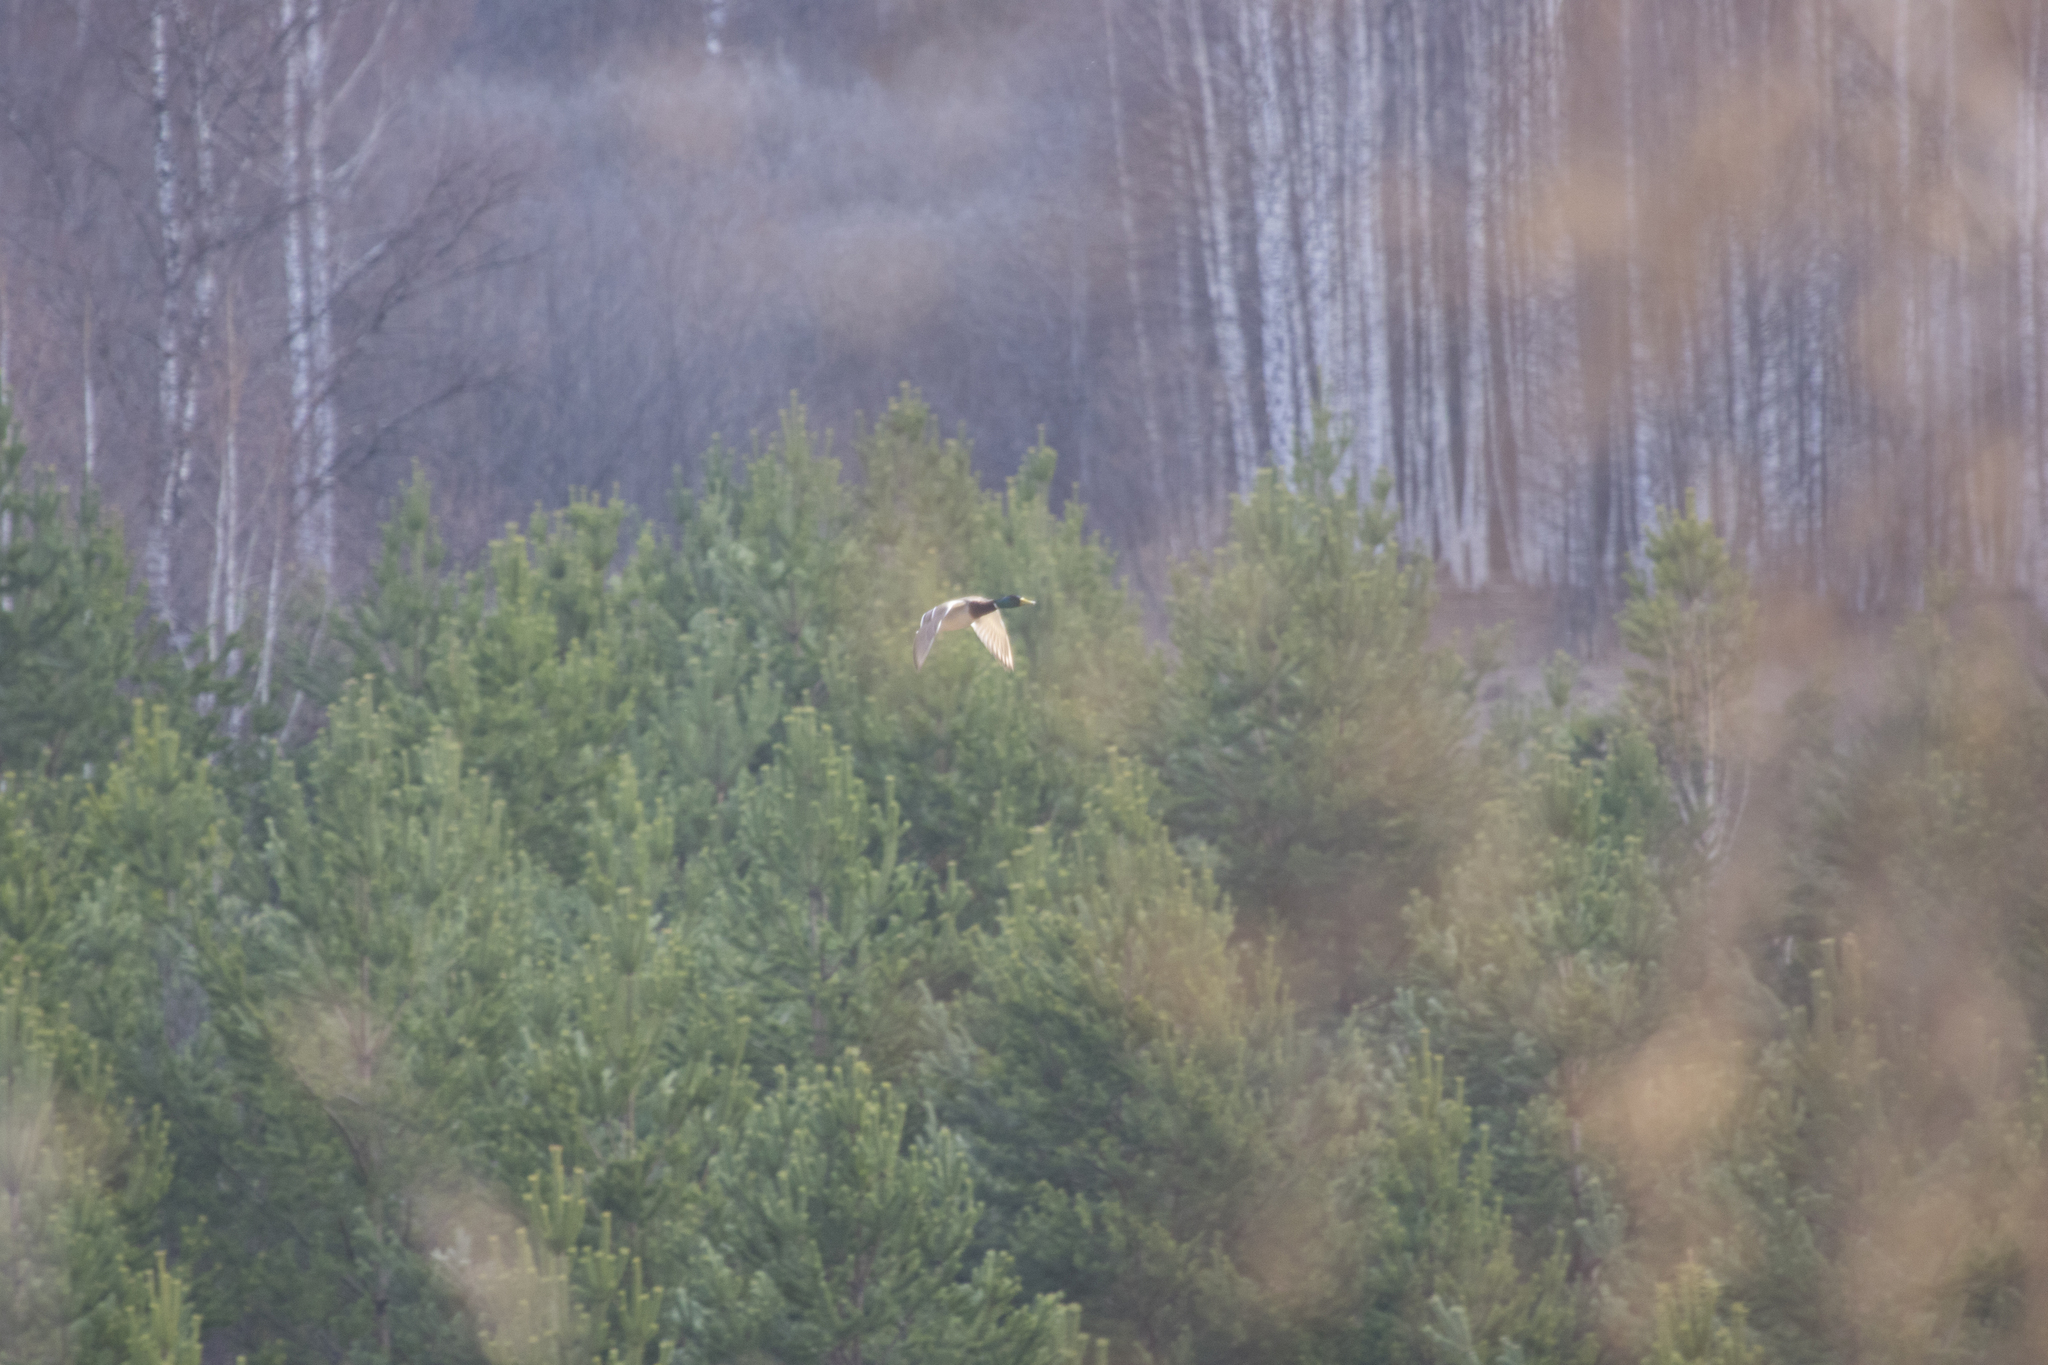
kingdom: Animalia
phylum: Chordata
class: Aves
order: Anseriformes
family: Anatidae
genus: Anas
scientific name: Anas platyrhynchos
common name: Mallard
